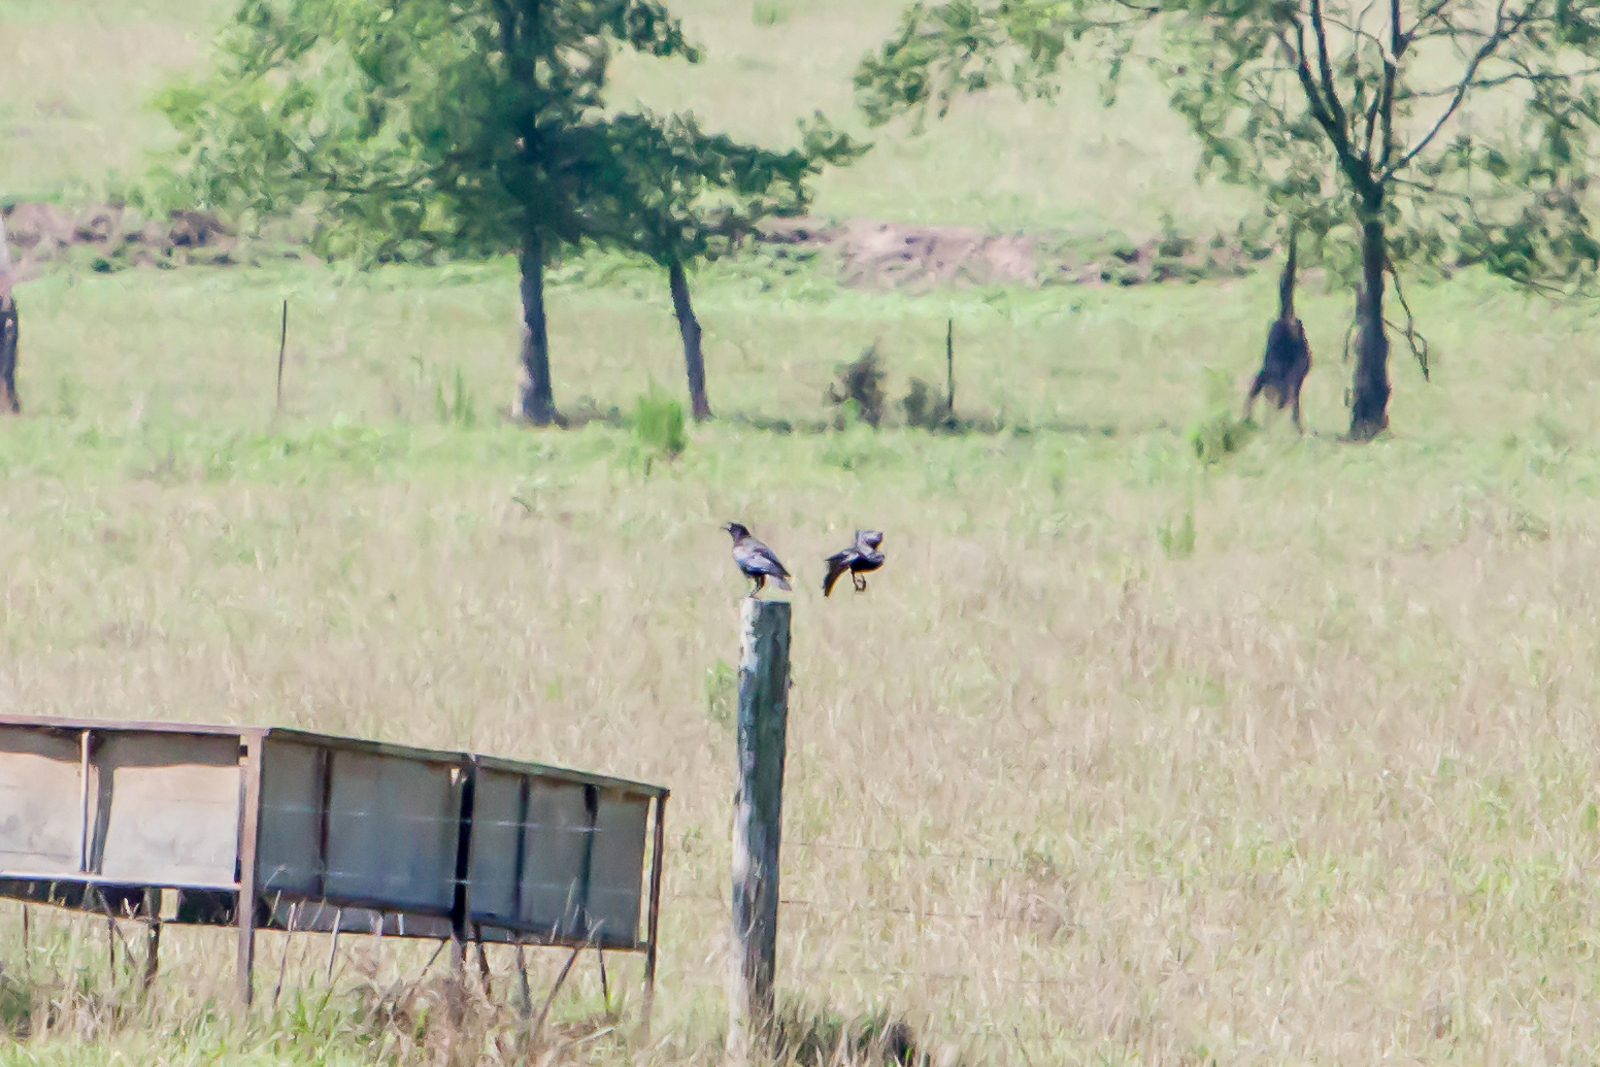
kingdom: Animalia
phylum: Chordata
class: Aves
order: Passeriformes
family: Corvidae
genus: Corvus
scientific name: Corvus brachyrhynchos
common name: American crow
